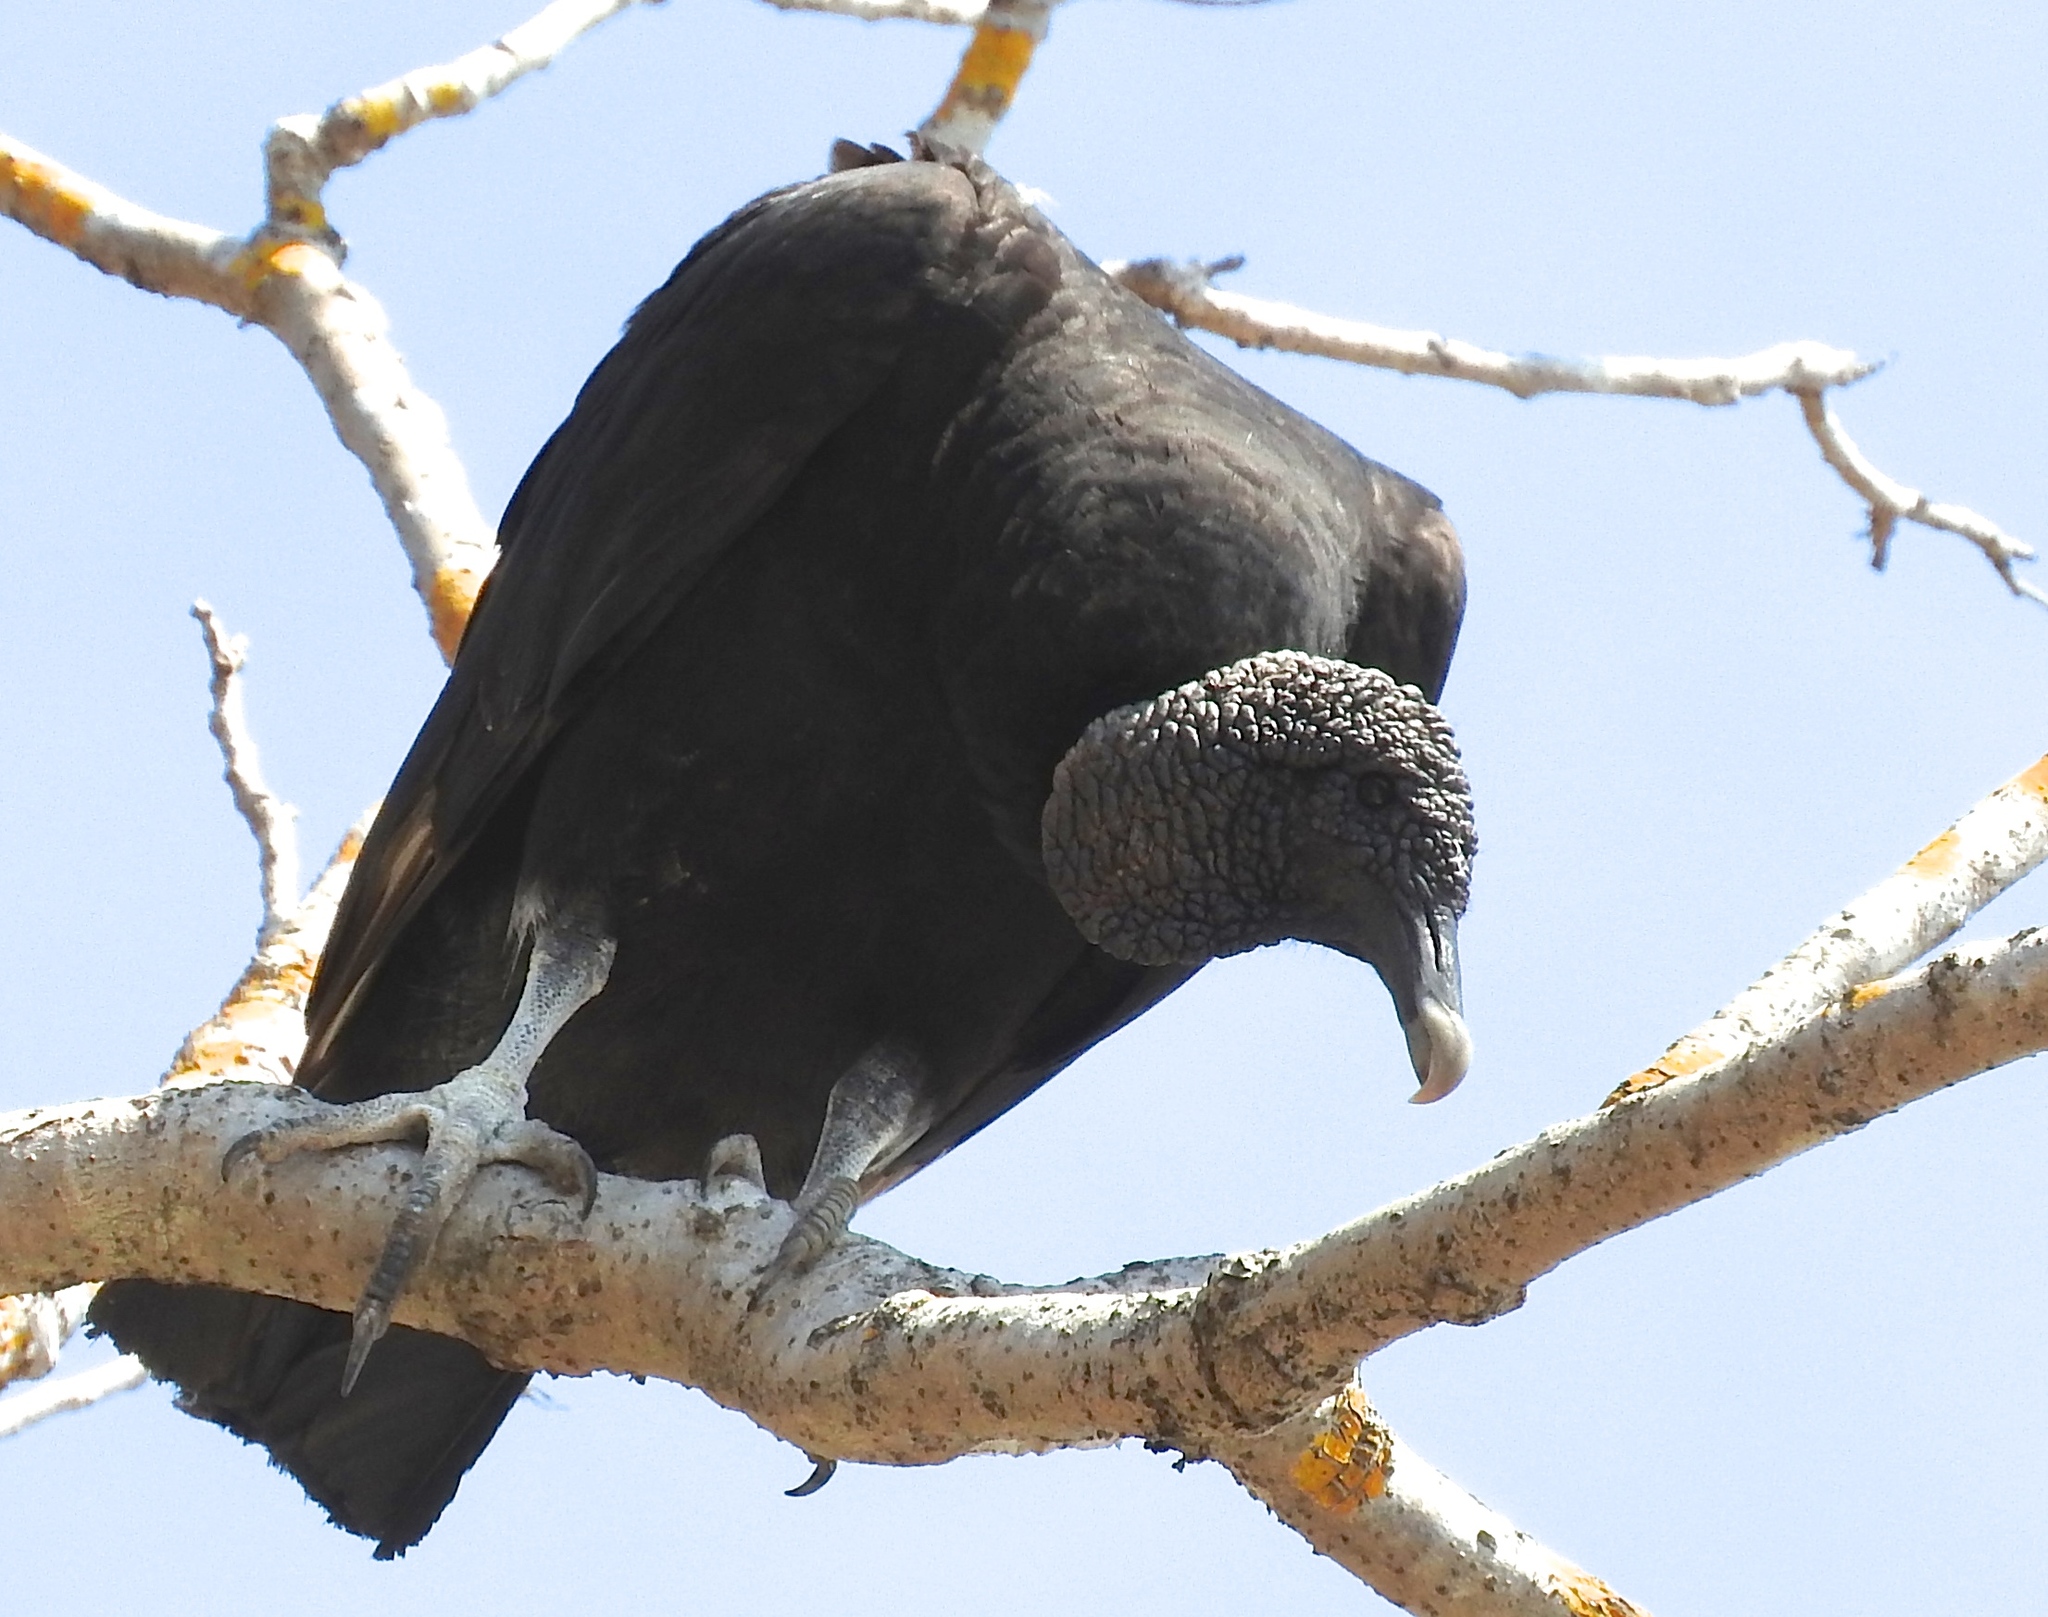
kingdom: Animalia
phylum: Chordata
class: Aves
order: Accipitriformes
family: Cathartidae
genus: Coragyps
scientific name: Coragyps atratus
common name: Black vulture
